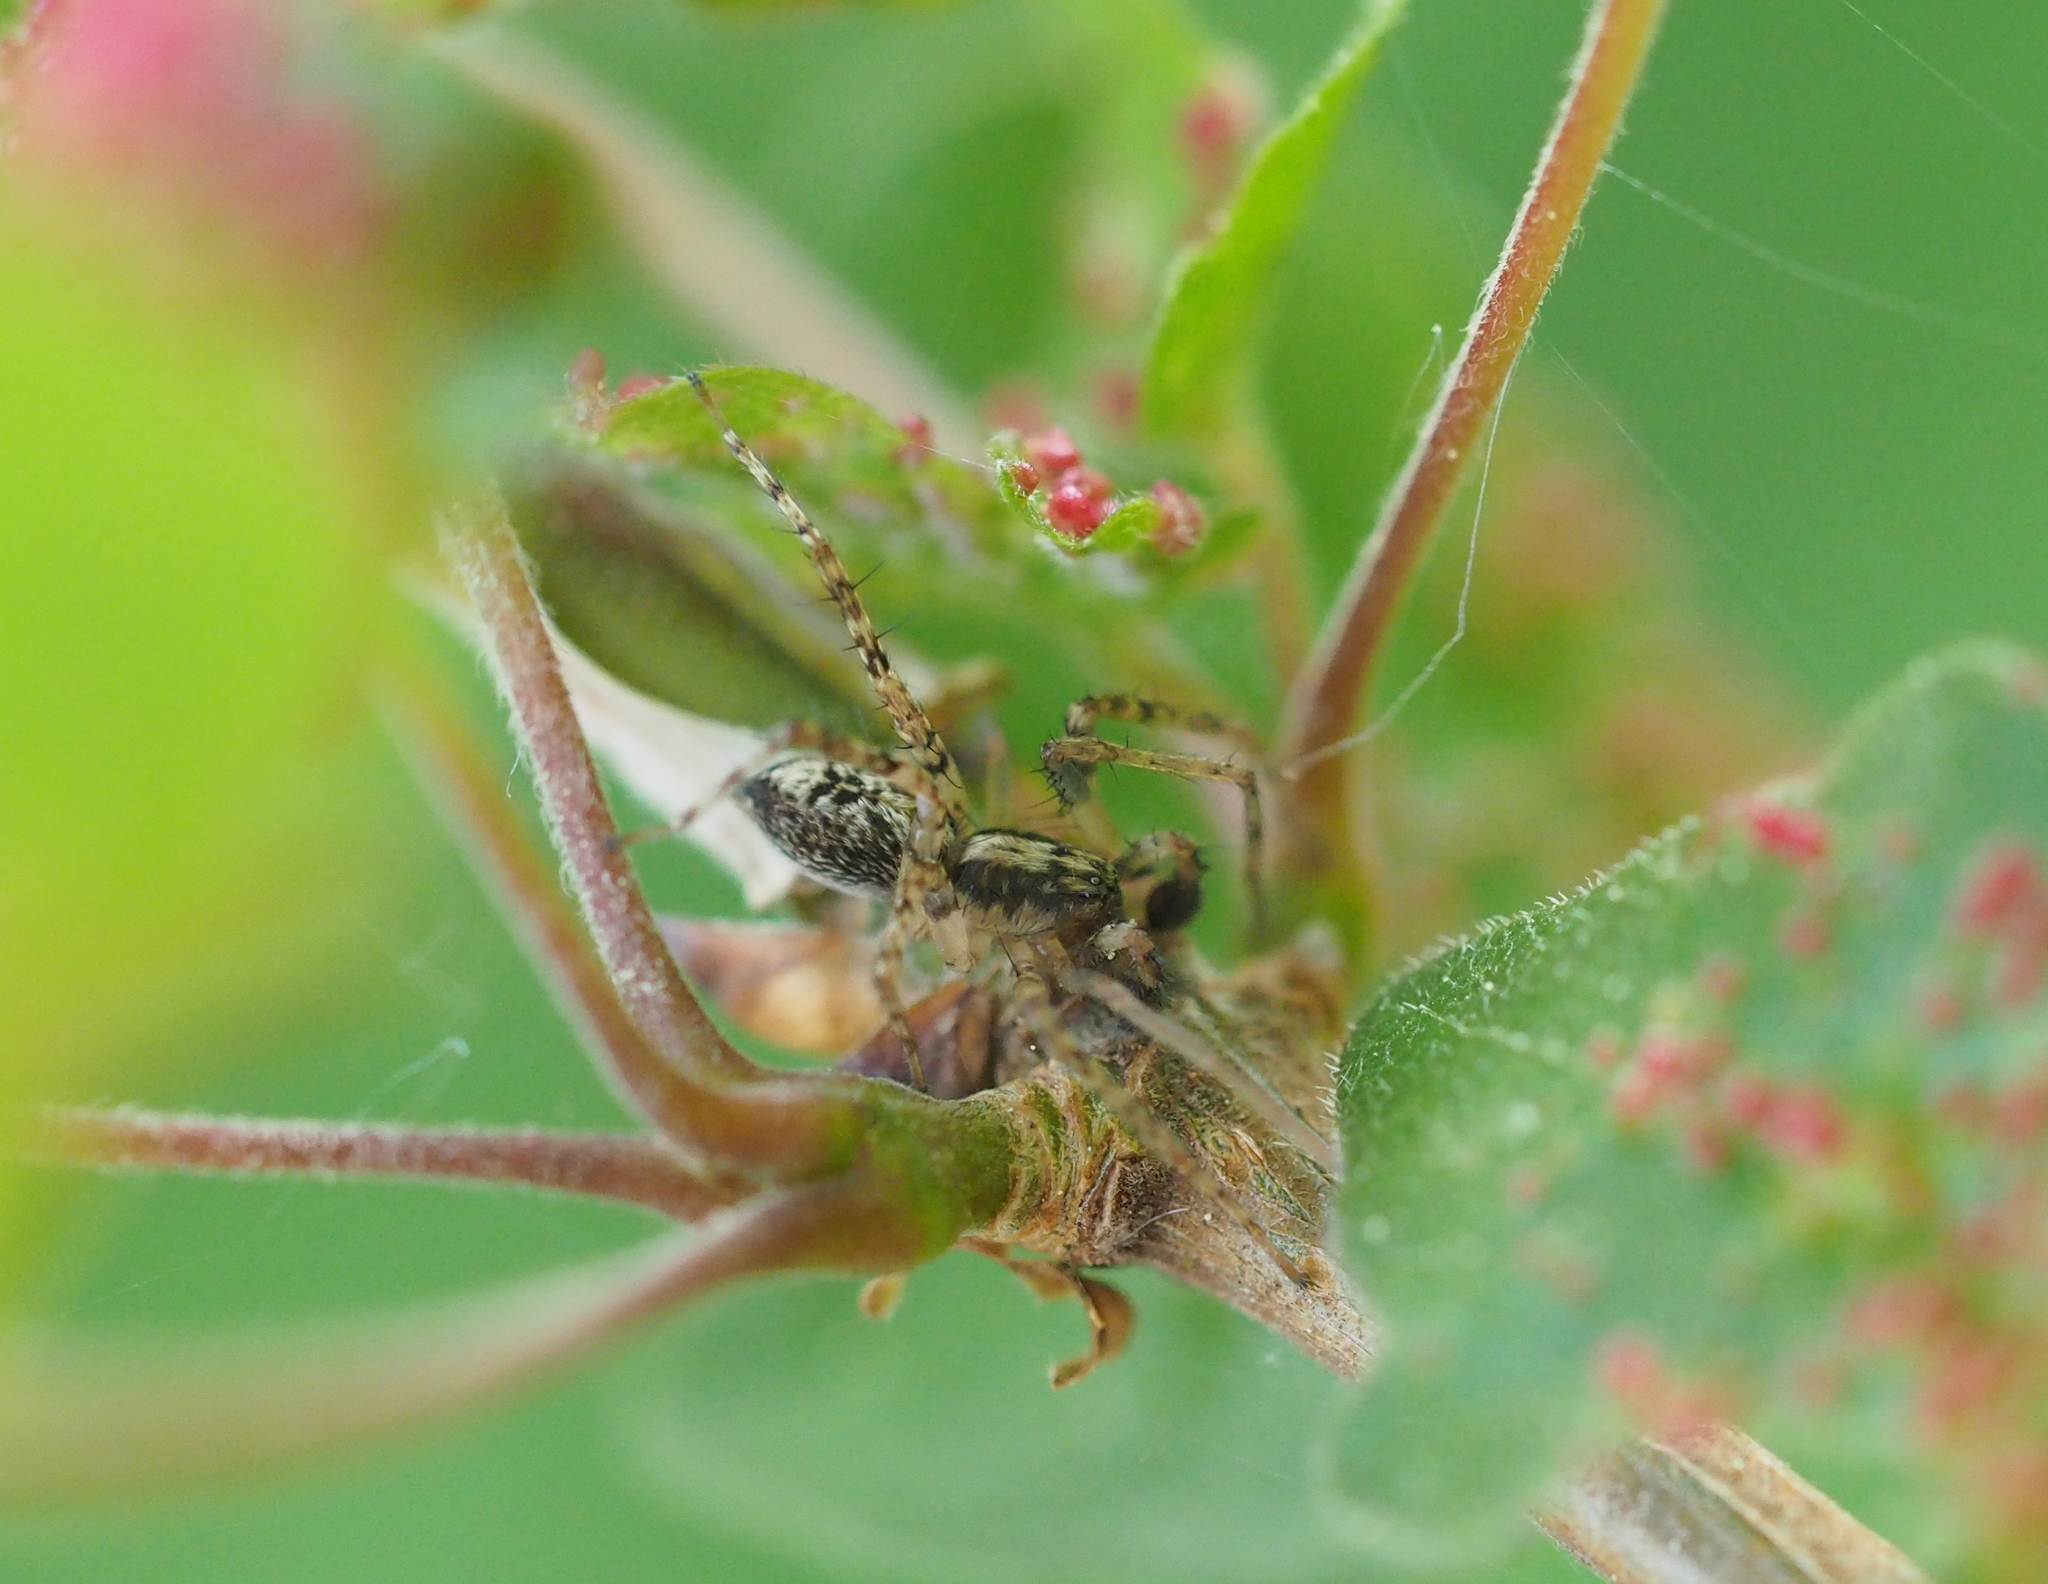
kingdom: Animalia
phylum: Arthropoda
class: Arachnida
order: Araneae
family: Anyphaenidae
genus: Anyphaena
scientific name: Anyphaena accentuata
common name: Buzzing spider
